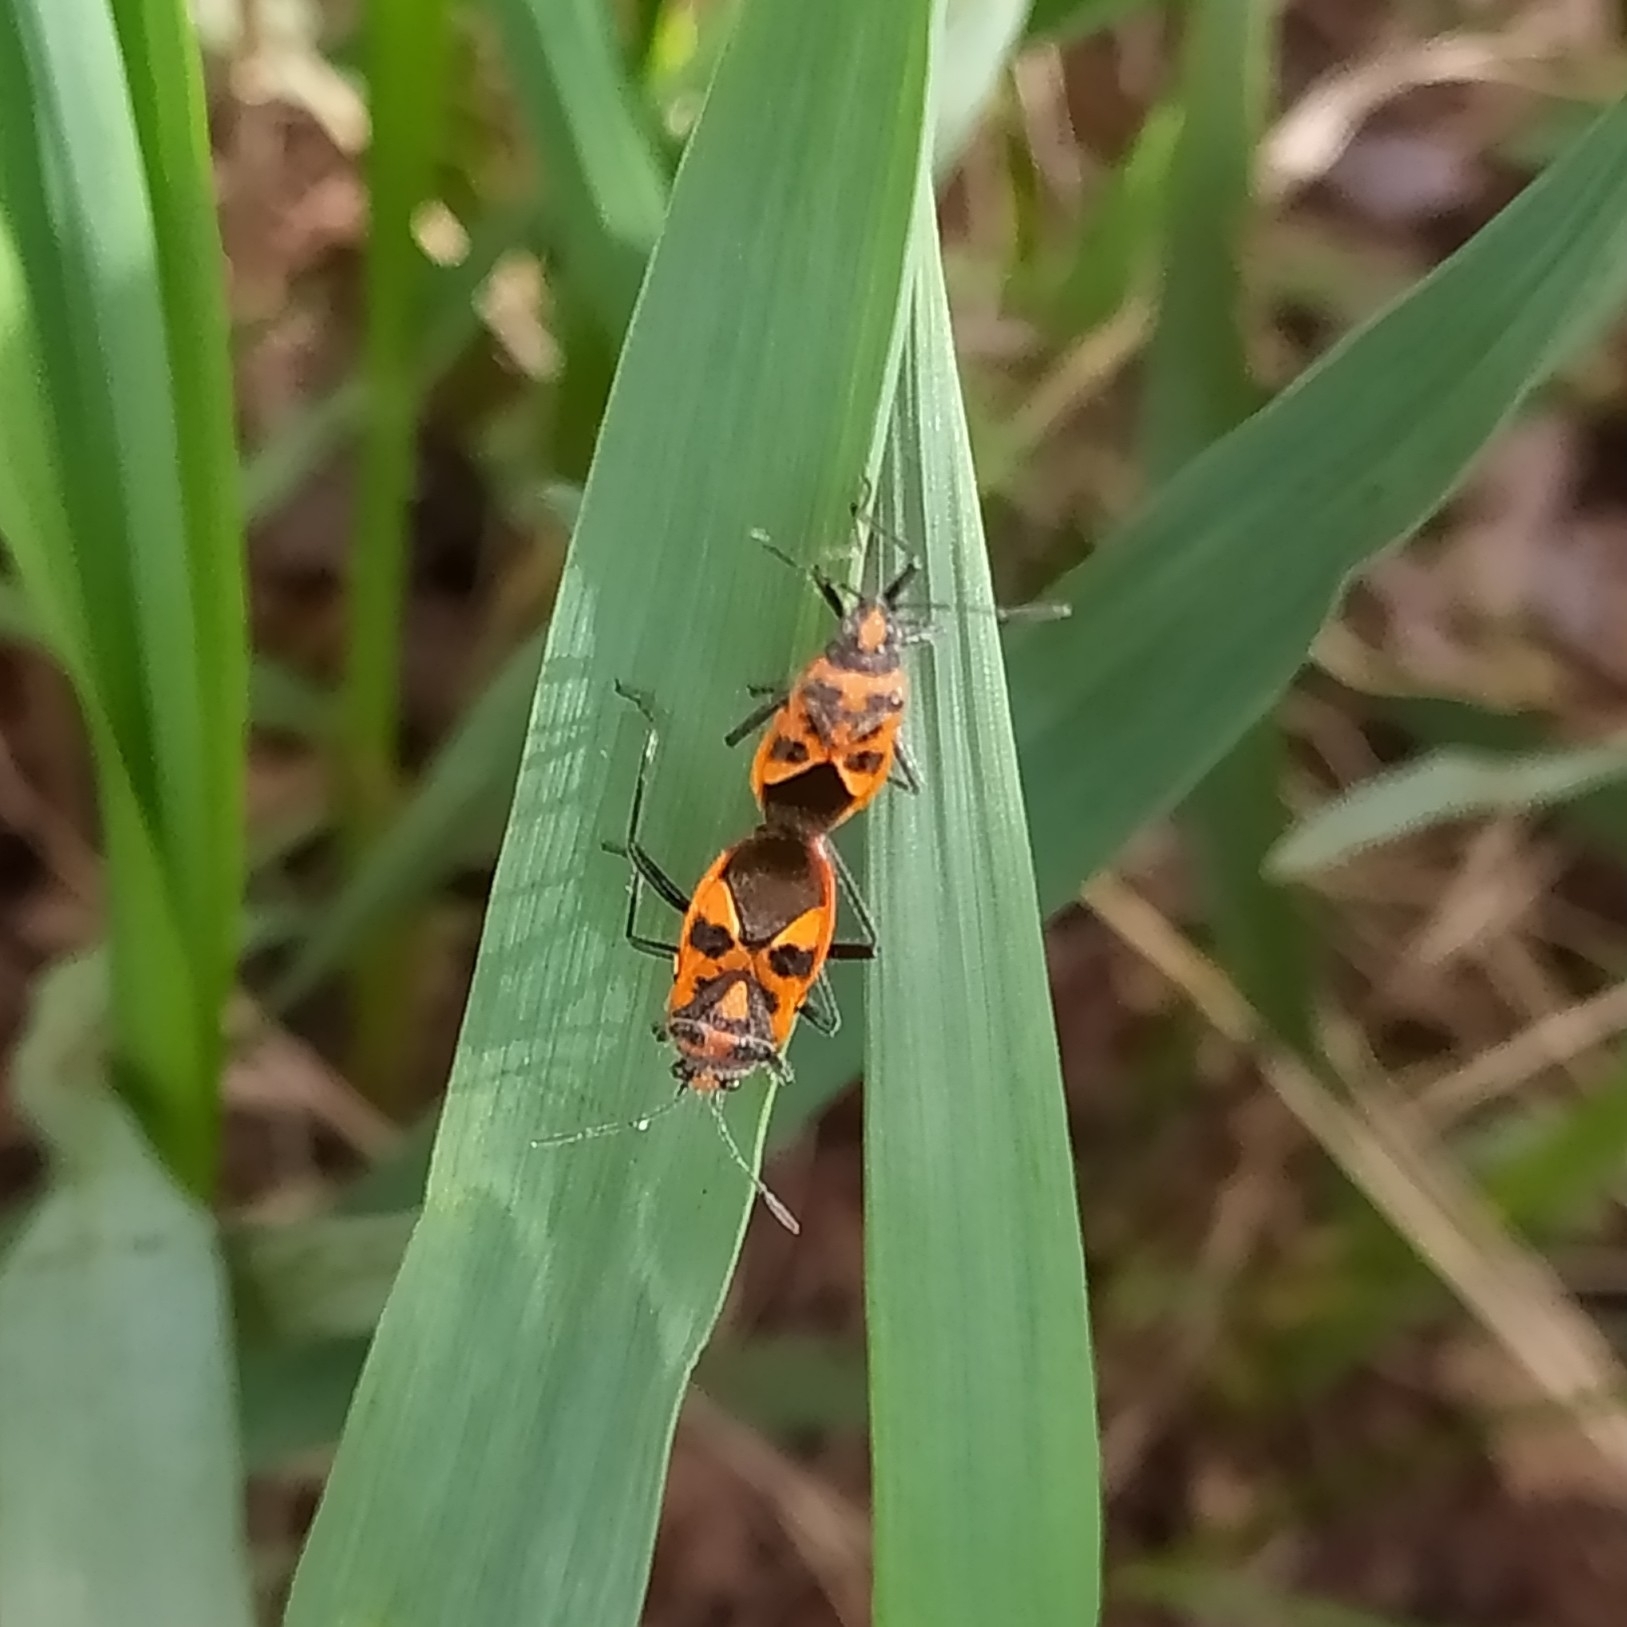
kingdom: Animalia
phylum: Arthropoda
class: Insecta
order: Hemiptera
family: Rhopalidae
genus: Corizus
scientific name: Corizus hyoscyami
